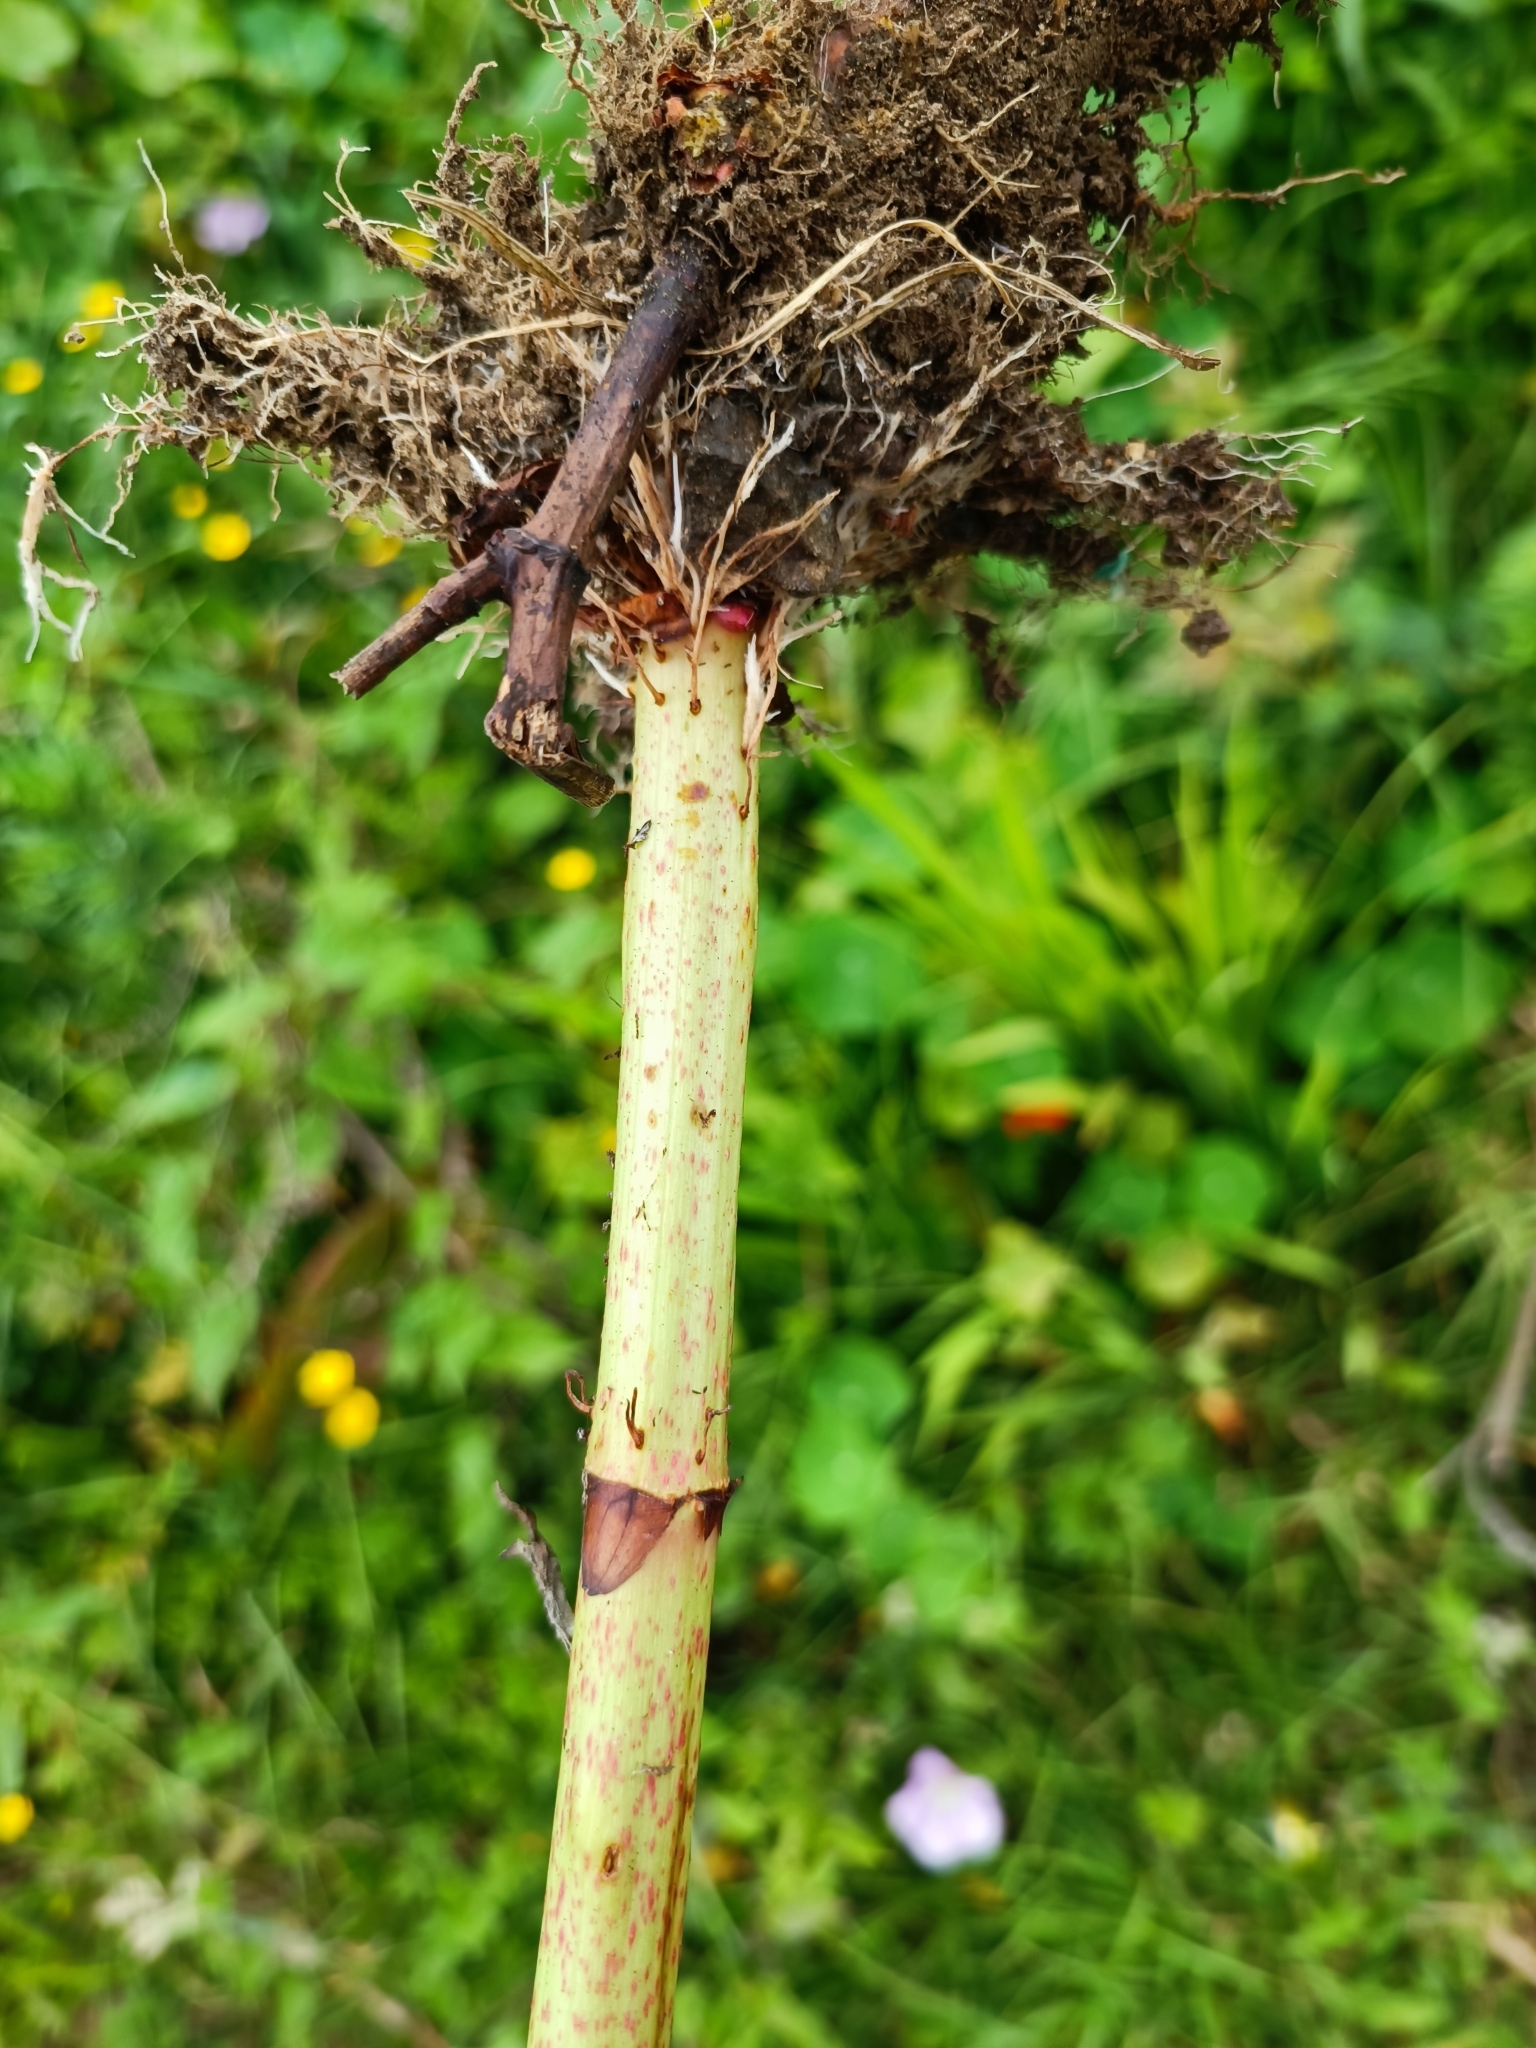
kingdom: Plantae
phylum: Tracheophyta
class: Magnoliopsida
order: Caryophyllales
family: Polygonaceae
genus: Reynoutria
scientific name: Reynoutria japonica
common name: Japanese knotweed
